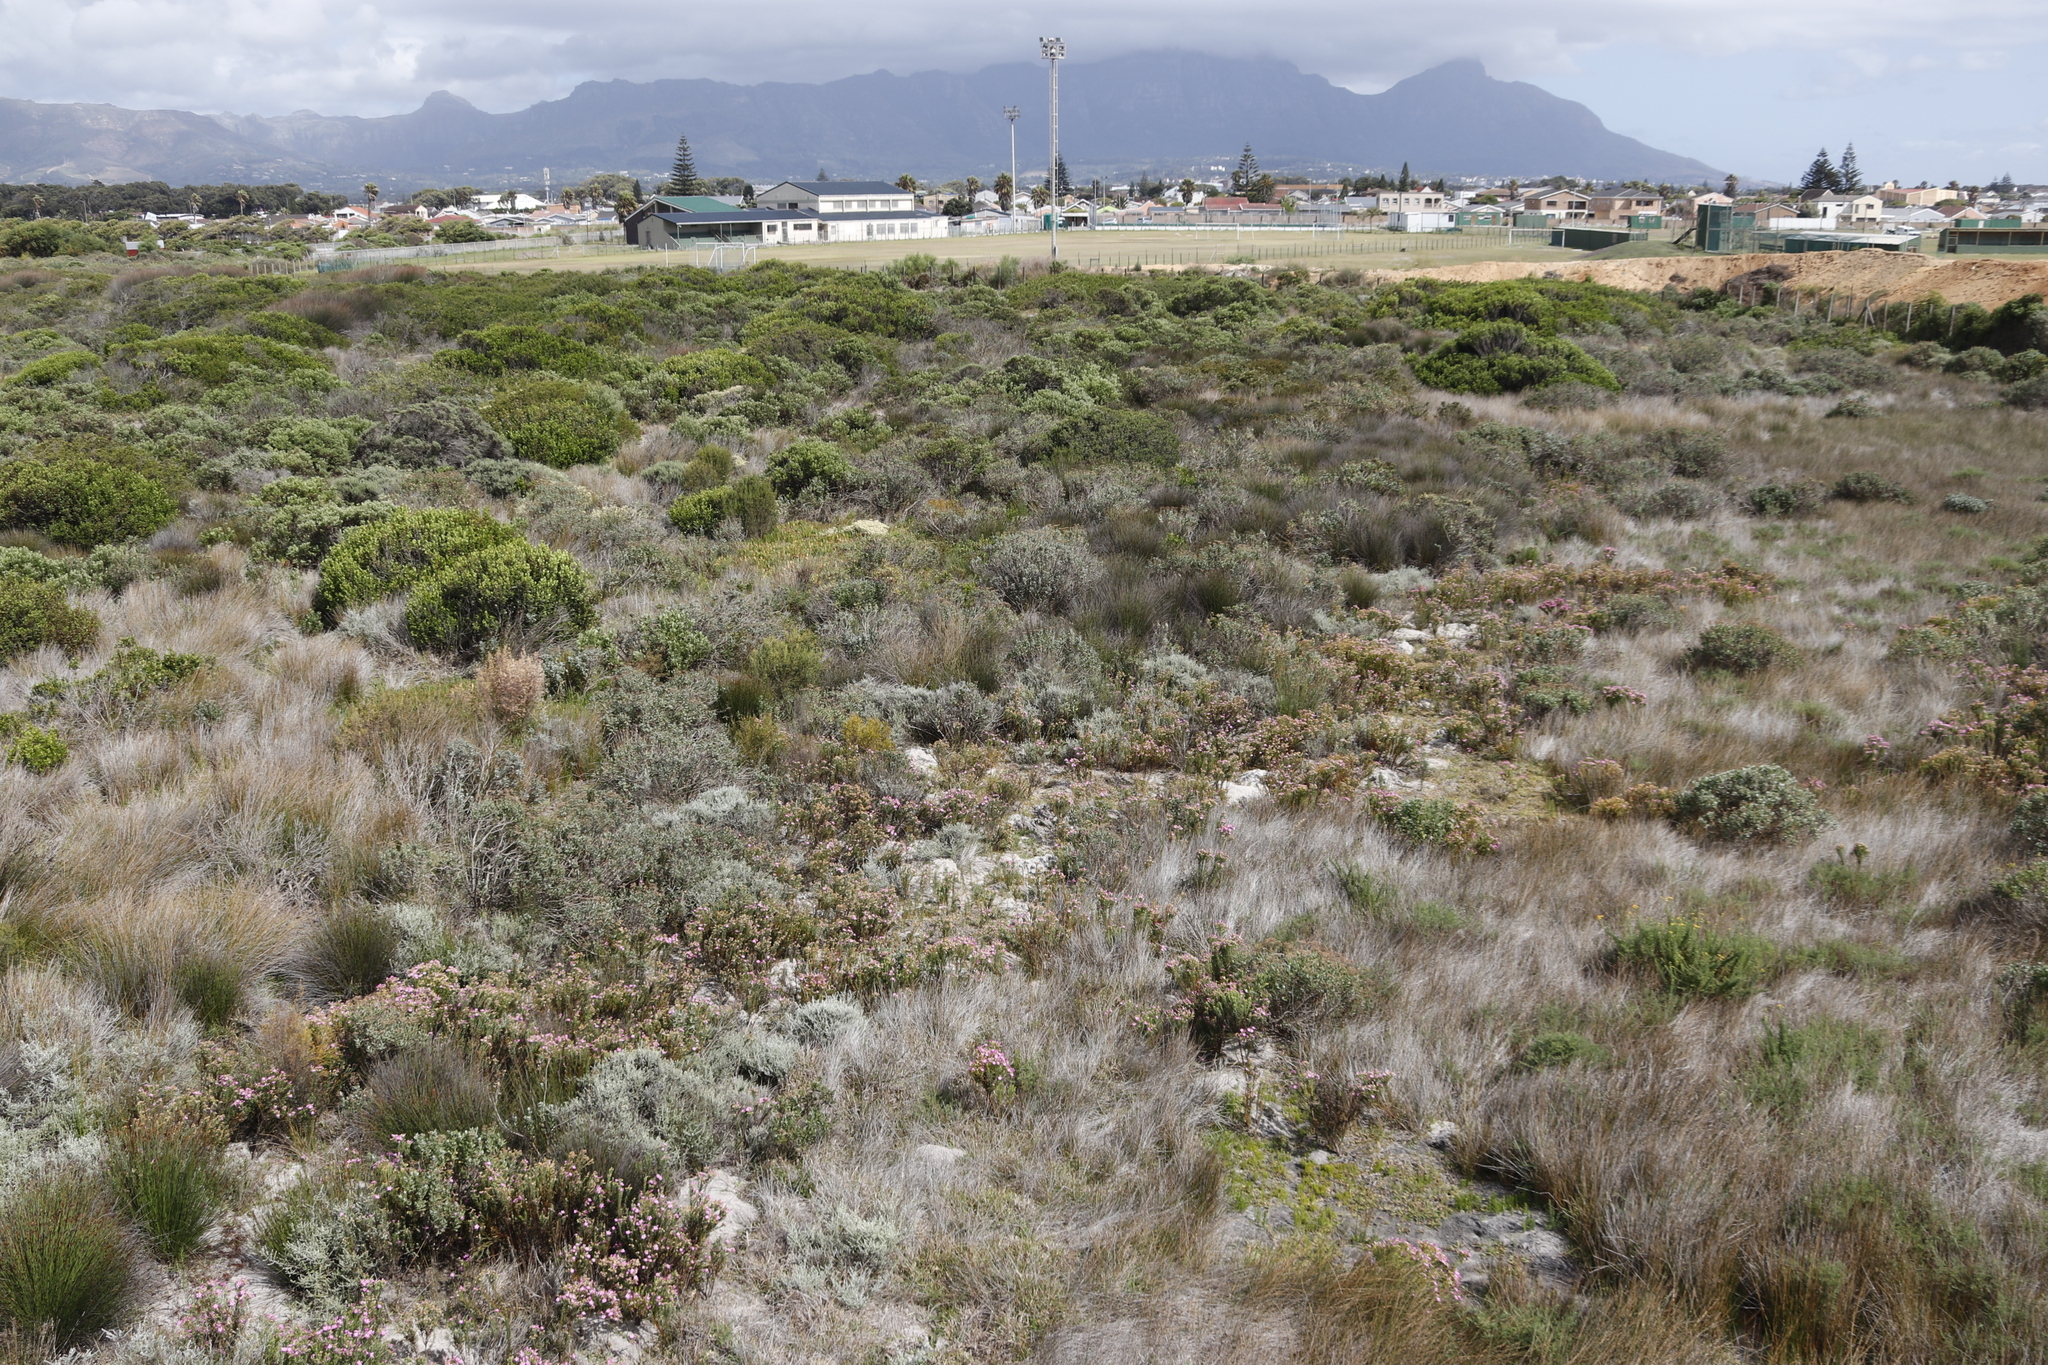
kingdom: Plantae
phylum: Tracheophyta
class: Magnoliopsida
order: Gentianales
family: Gentianaceae
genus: Orphium
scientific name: Orphium frutescens
